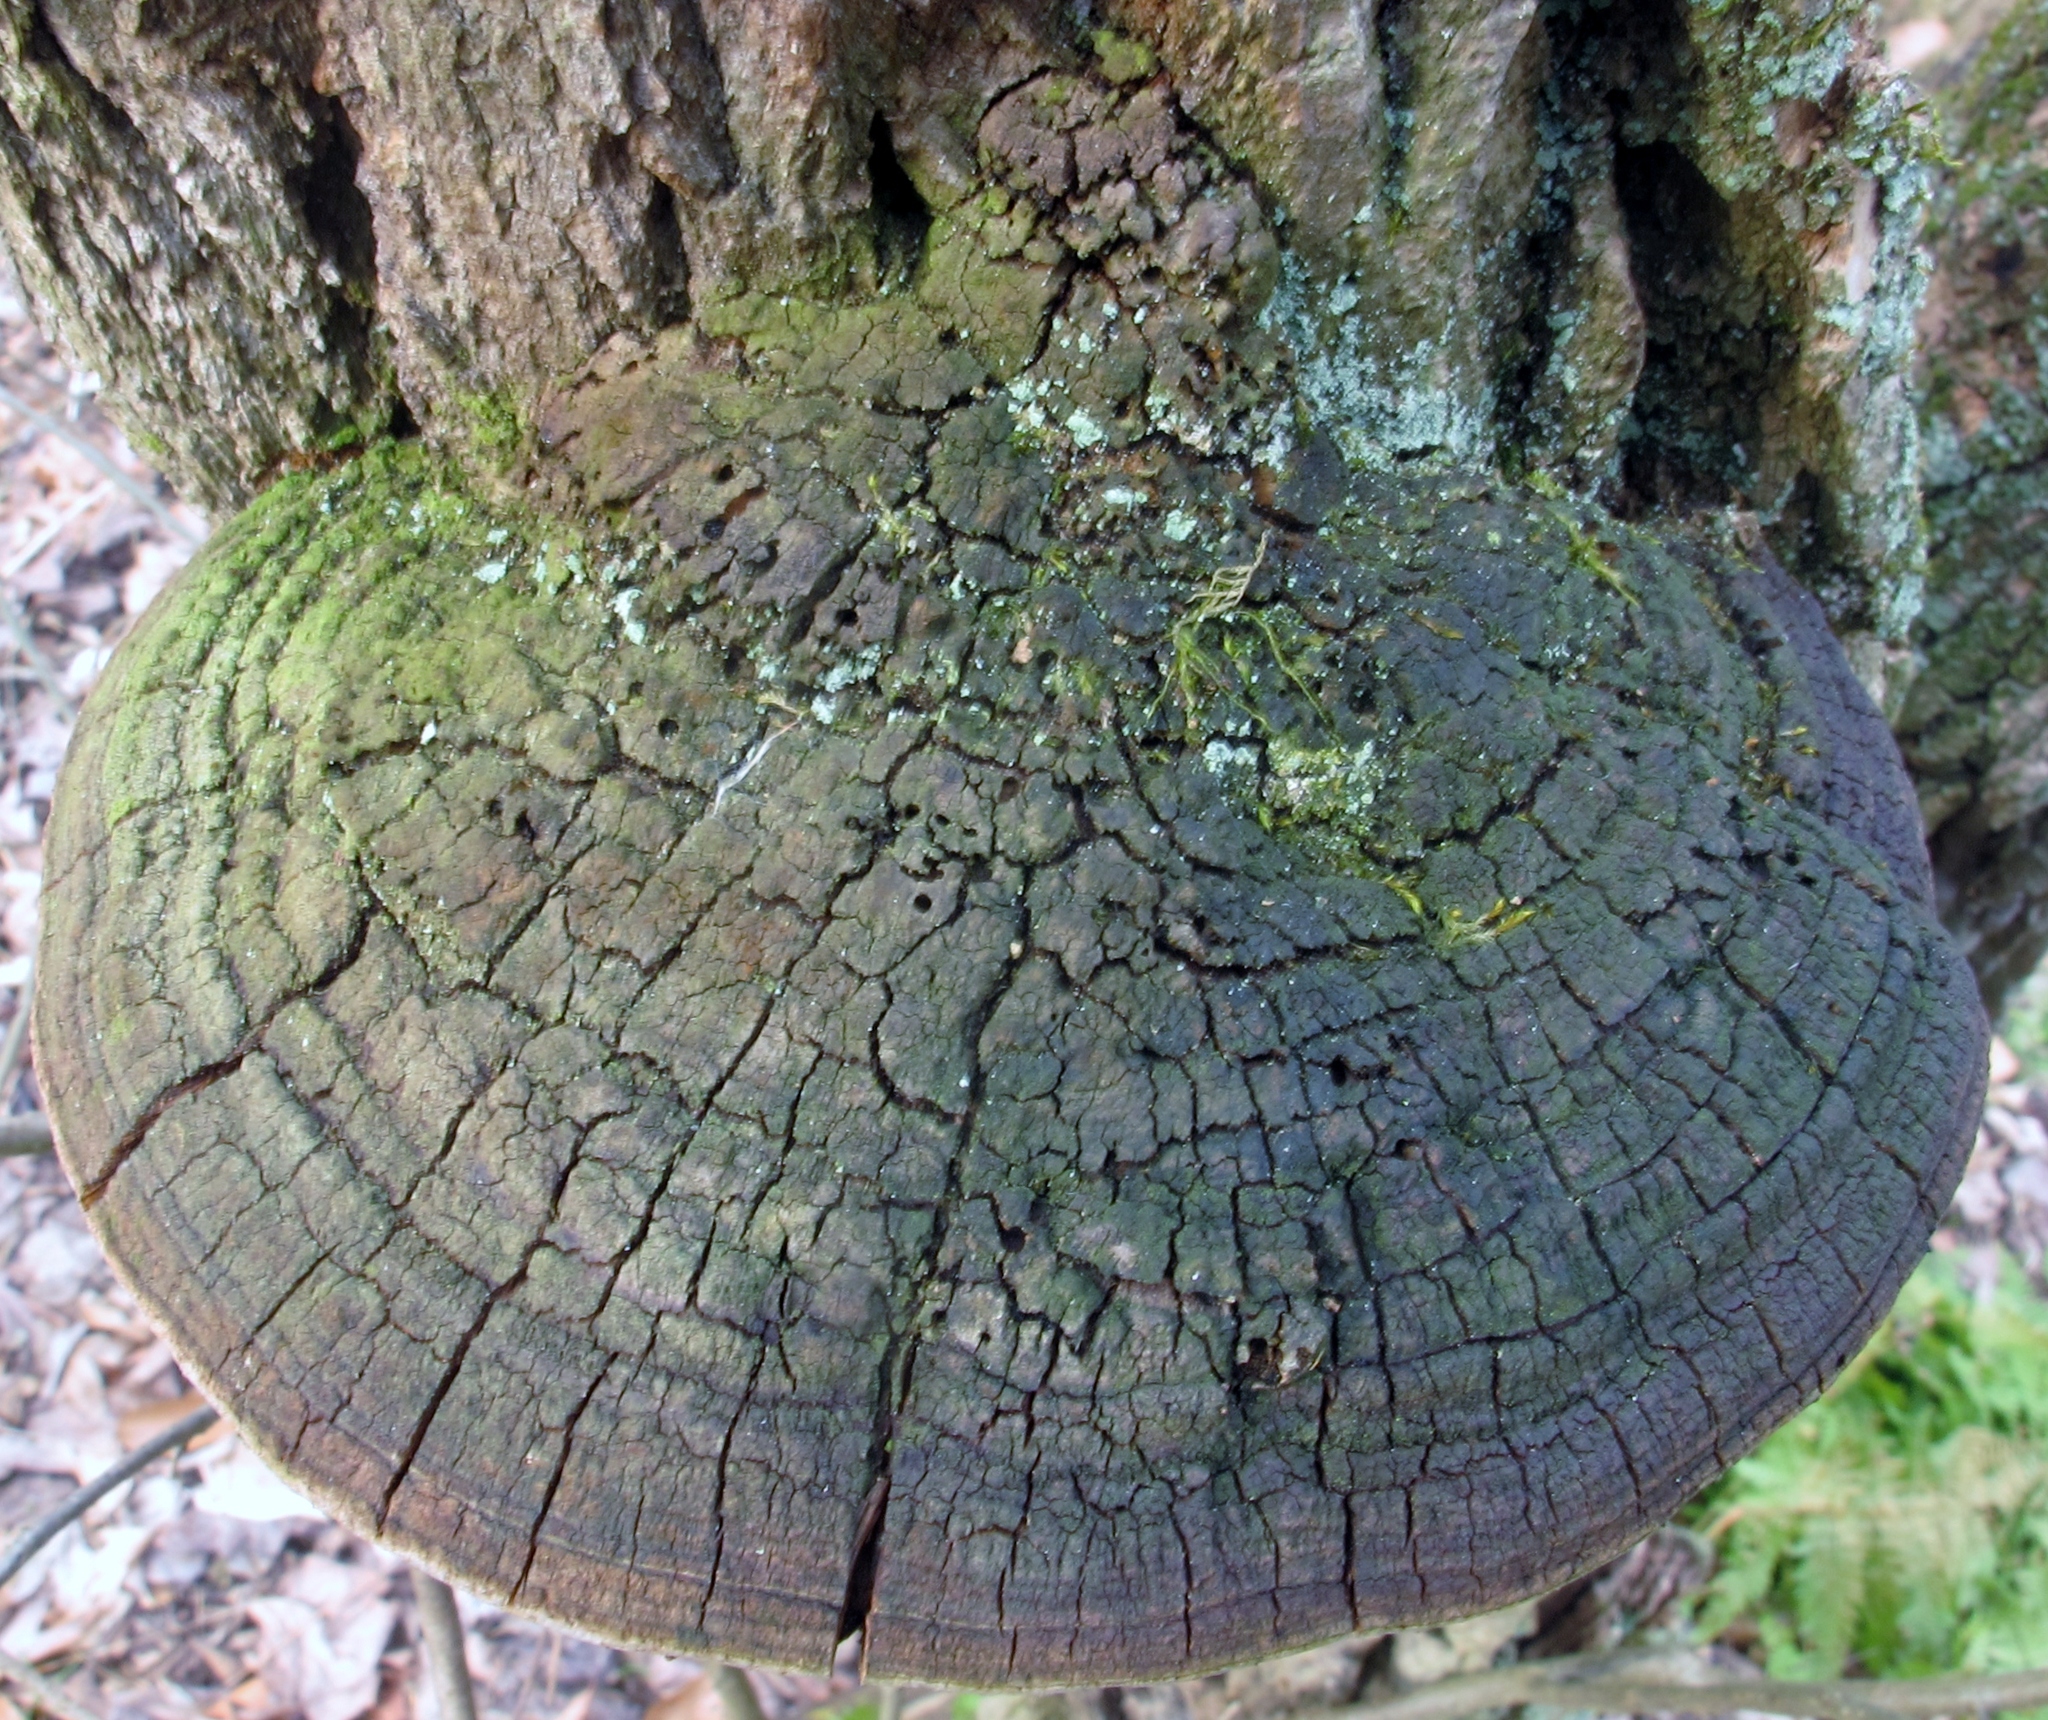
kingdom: Fungi
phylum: Basidiomycota
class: Agaricomycetes
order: Hymenochaetales
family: Hymenochaetaceae
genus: Phellinus
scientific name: Phellinus robiniae
